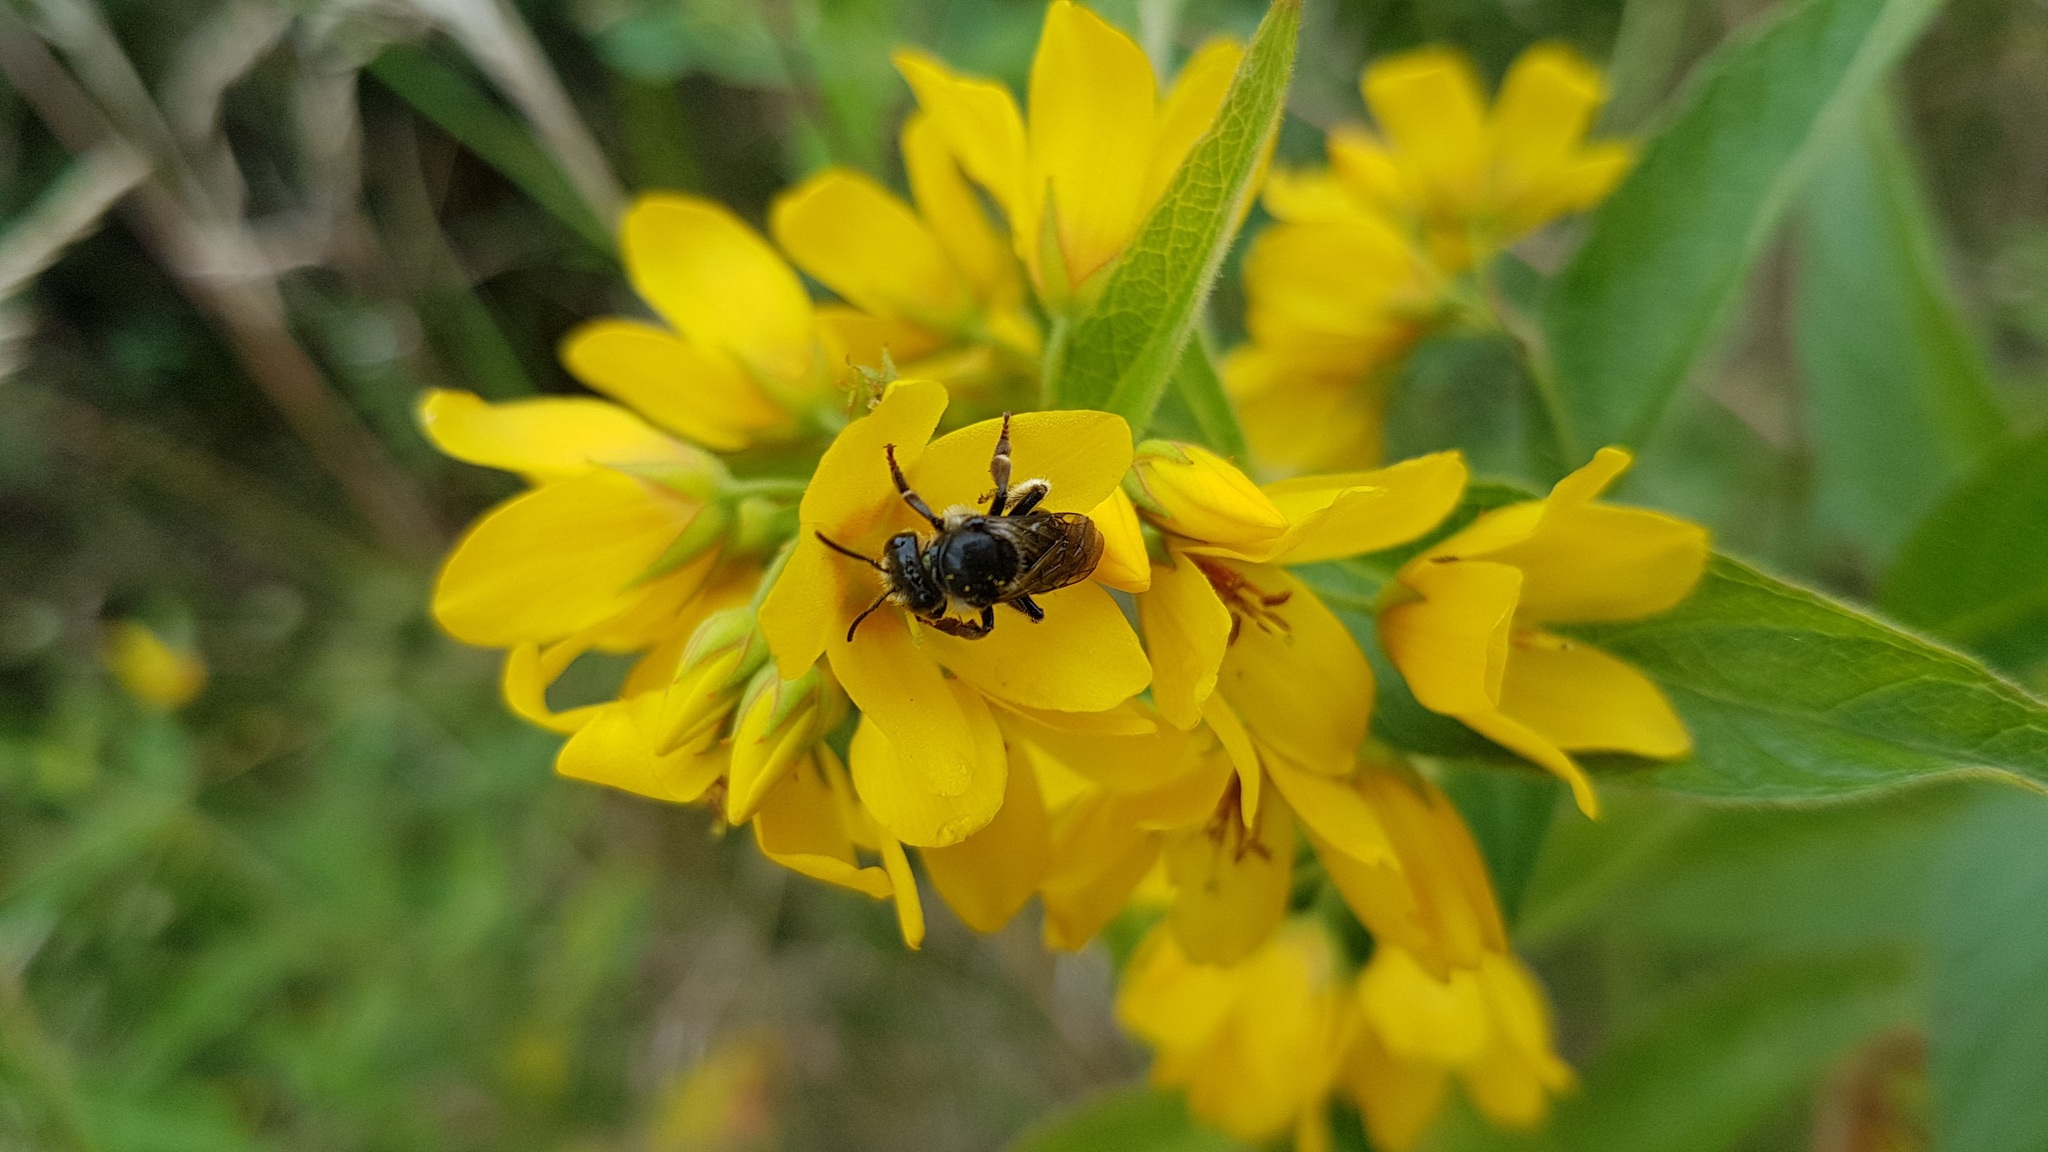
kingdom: Animalia
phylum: Arthropoda
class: Insecta
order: Hymenoptera
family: Melittidae
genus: Macropis
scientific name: Macropis europaea
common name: Yellow loosestrife bee
